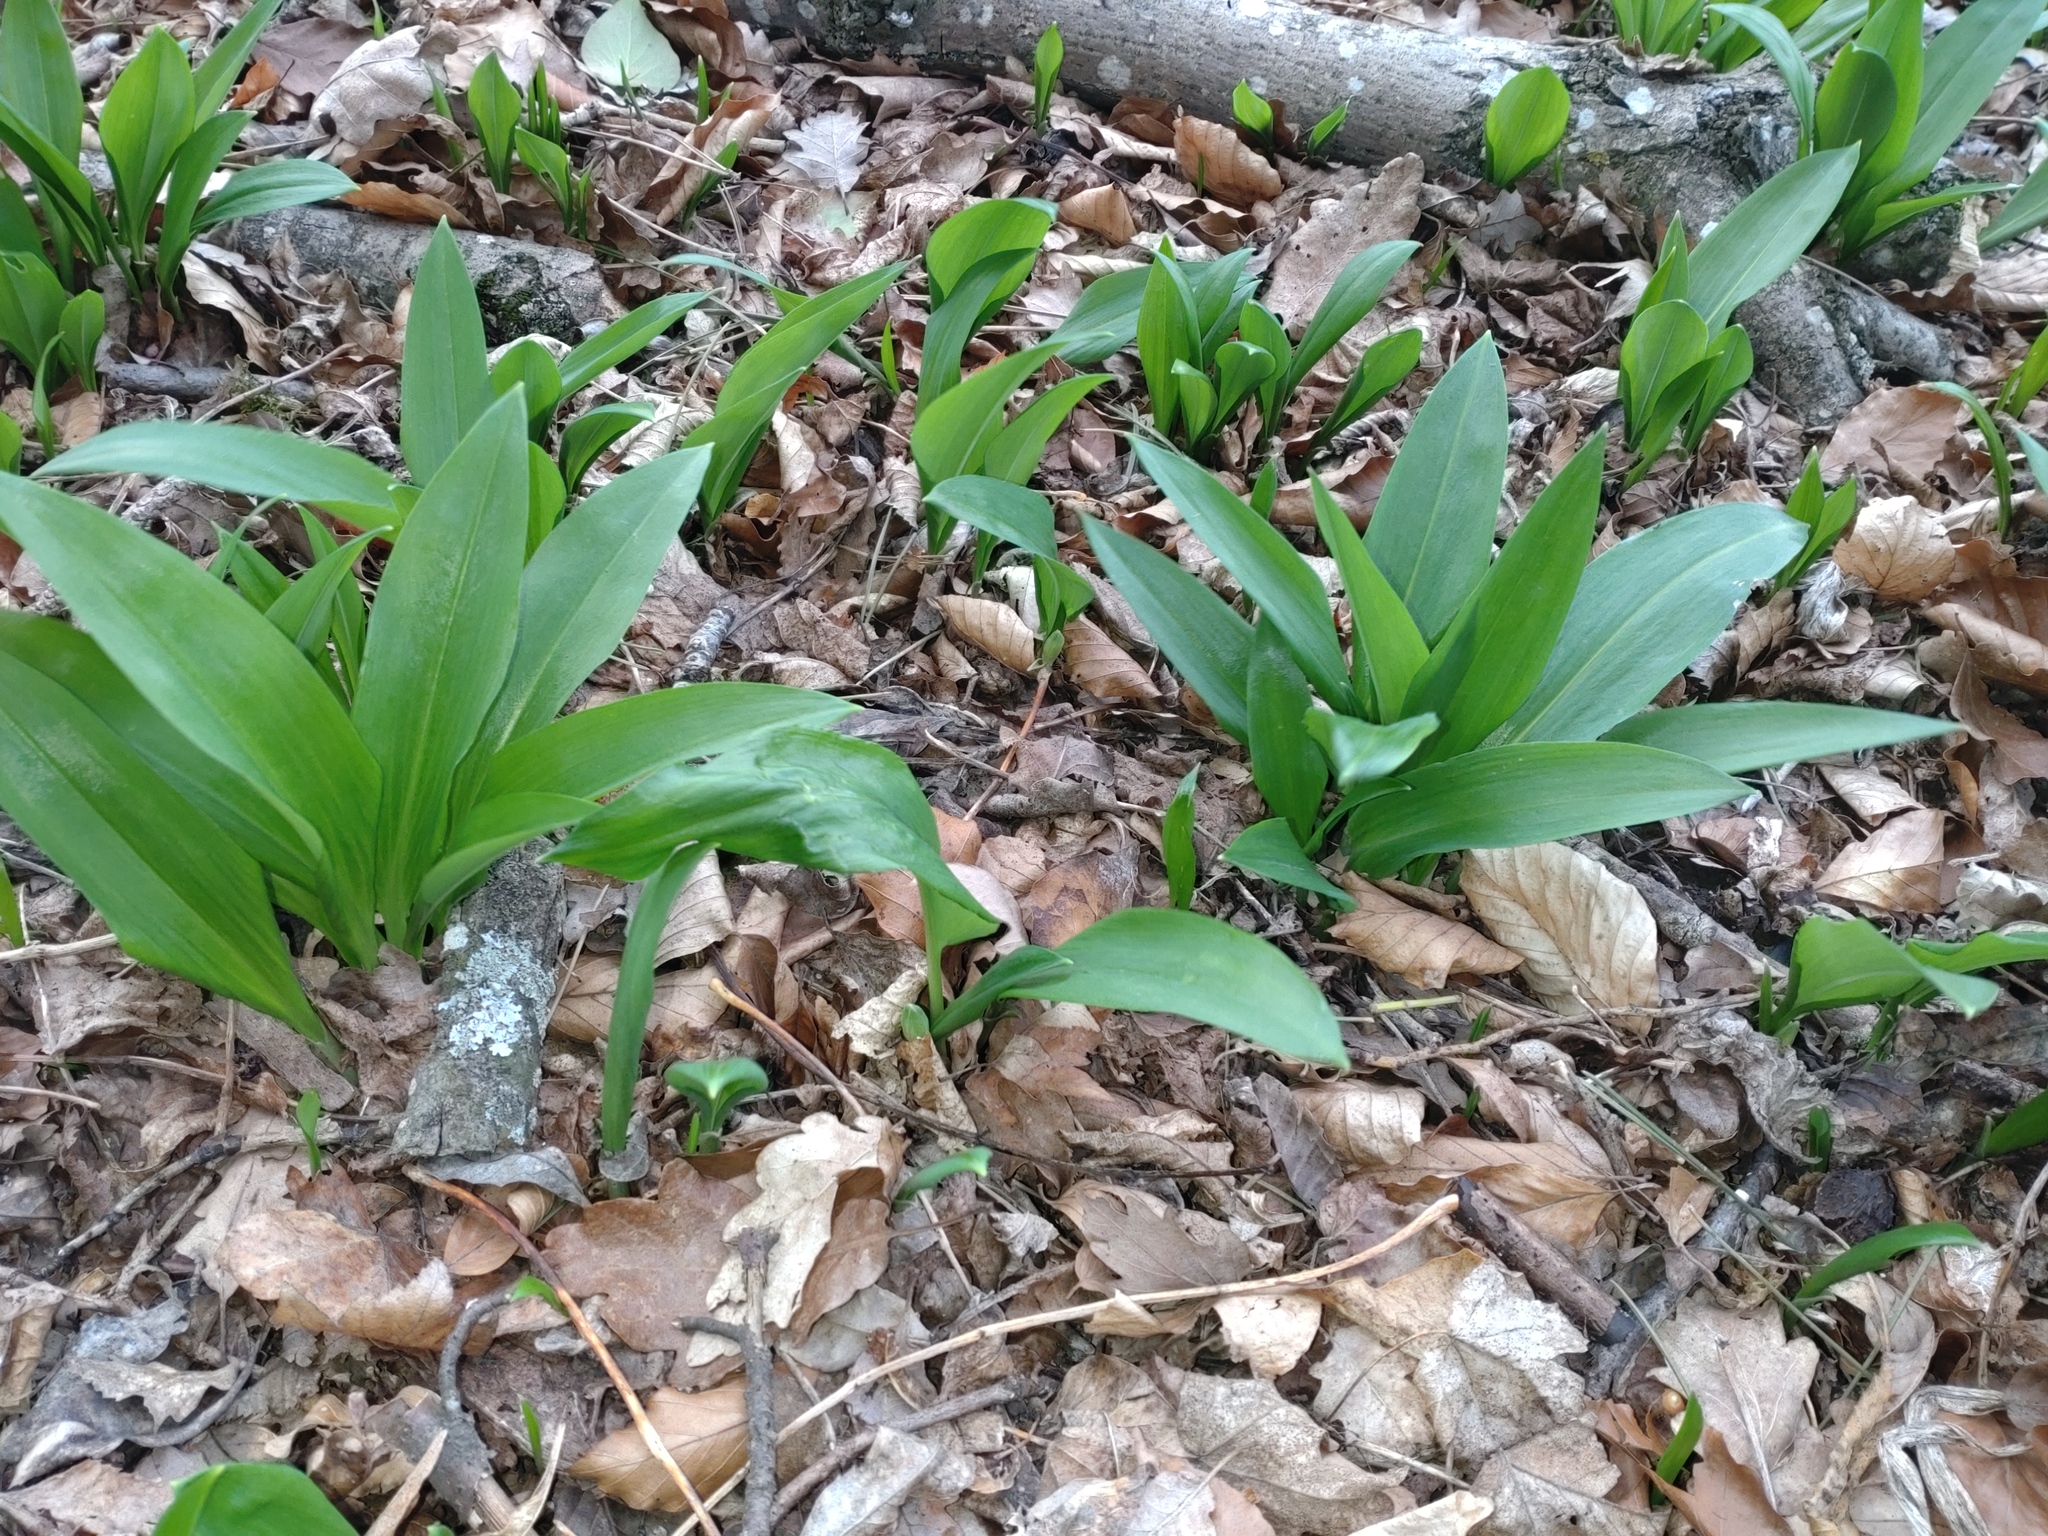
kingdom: Plantae
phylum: Tracheophyta
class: Liliopsida
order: Asparagales
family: Amaryllidaceae
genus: Allium
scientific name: Allium ursinum
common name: Ramsons
